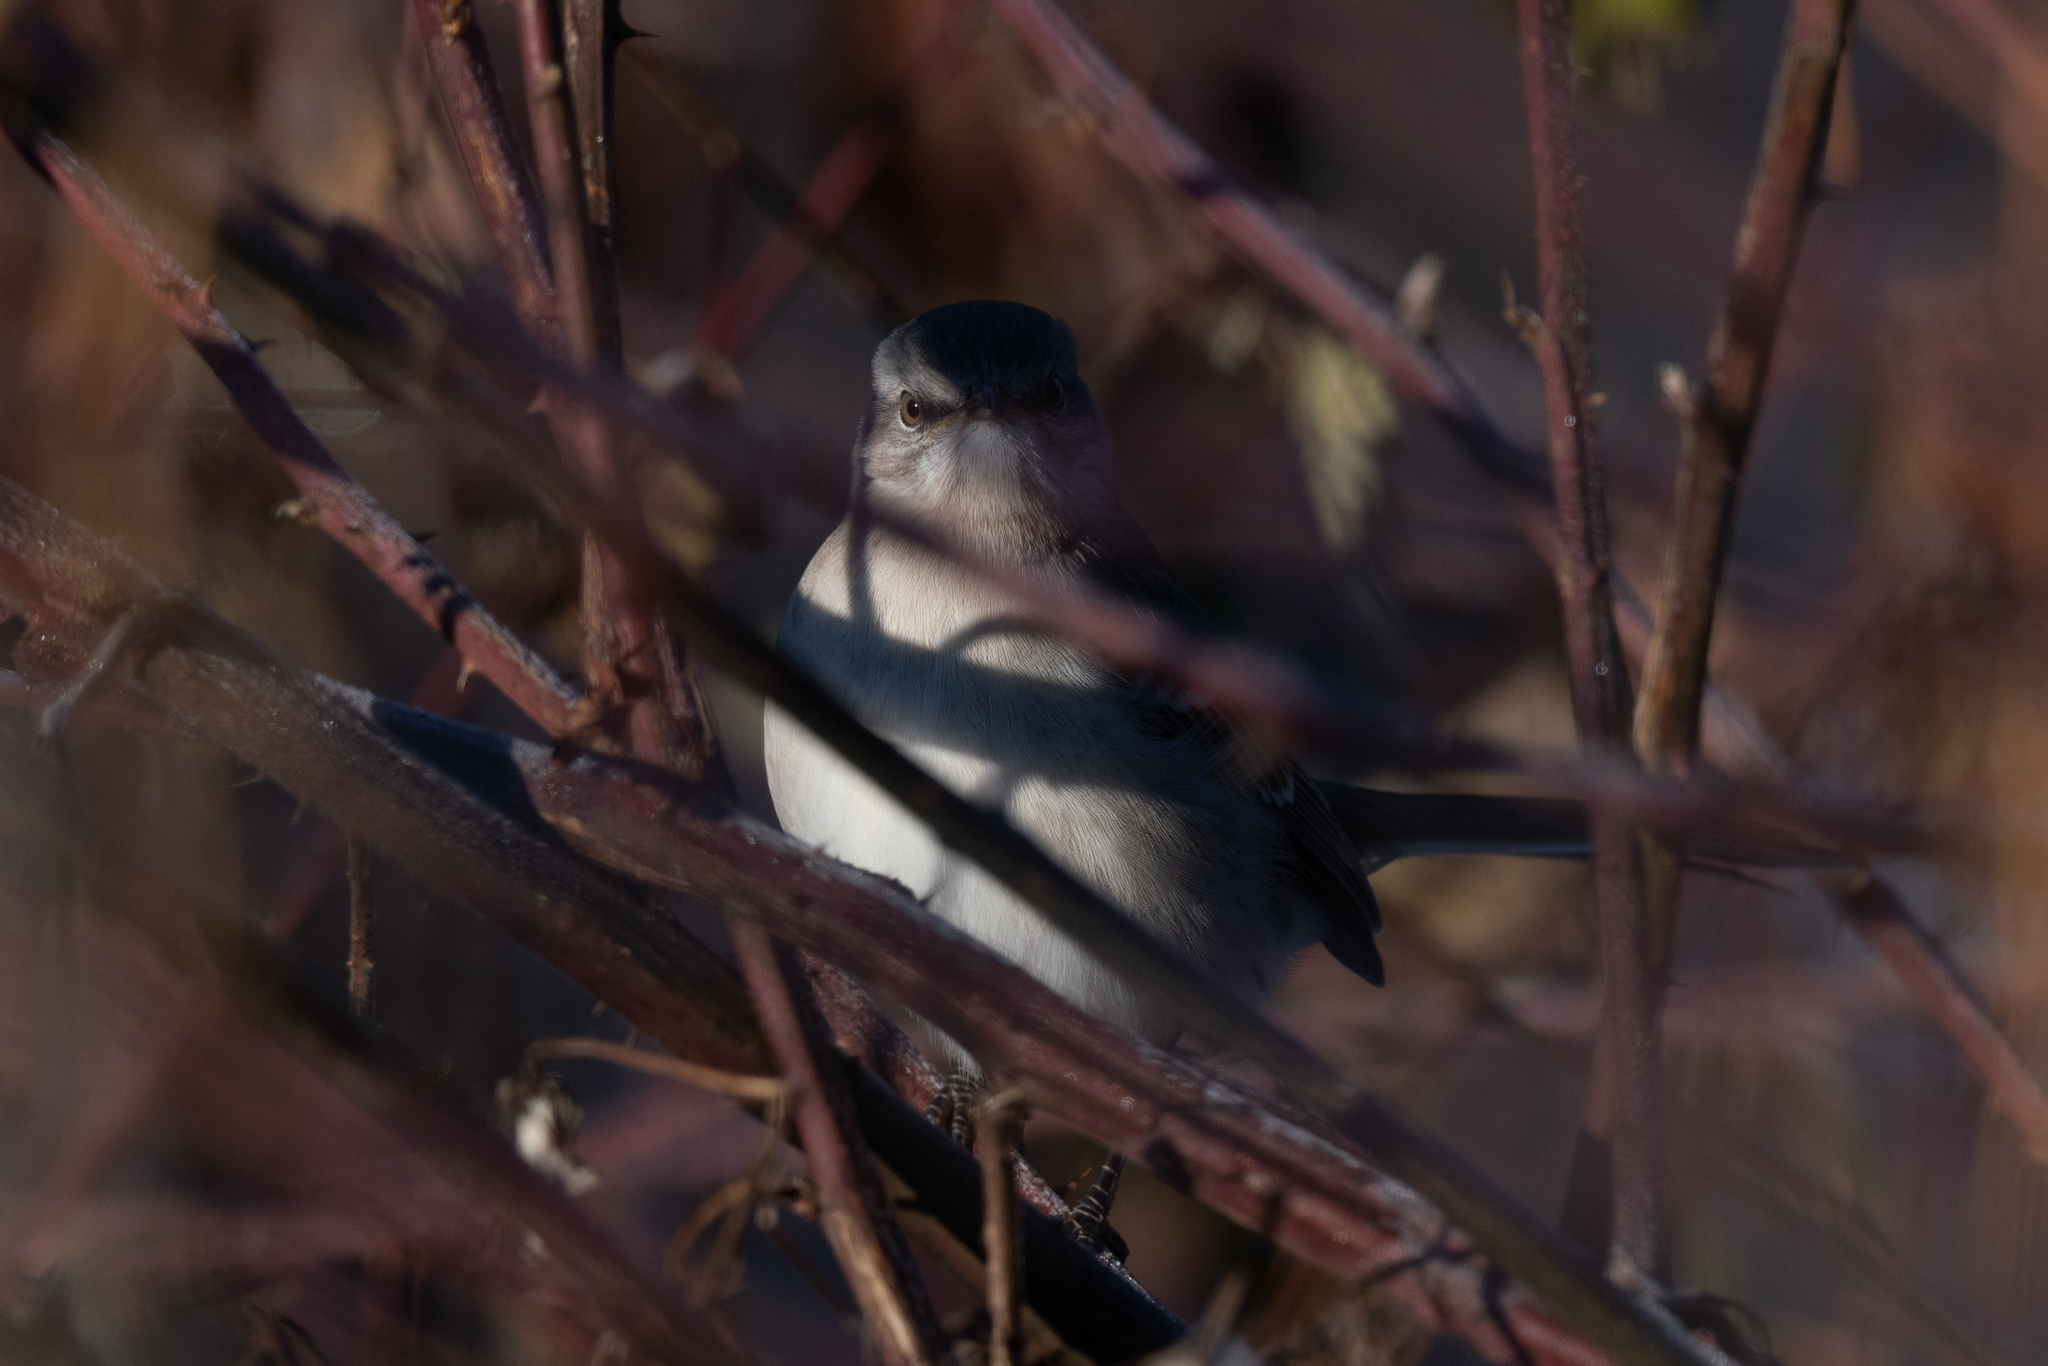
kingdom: Animalia
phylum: Chordata
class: Aves
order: Passeriformes
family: Mimidae
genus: Mimus
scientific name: Mimus polyglottos
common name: Northern mockingbird
